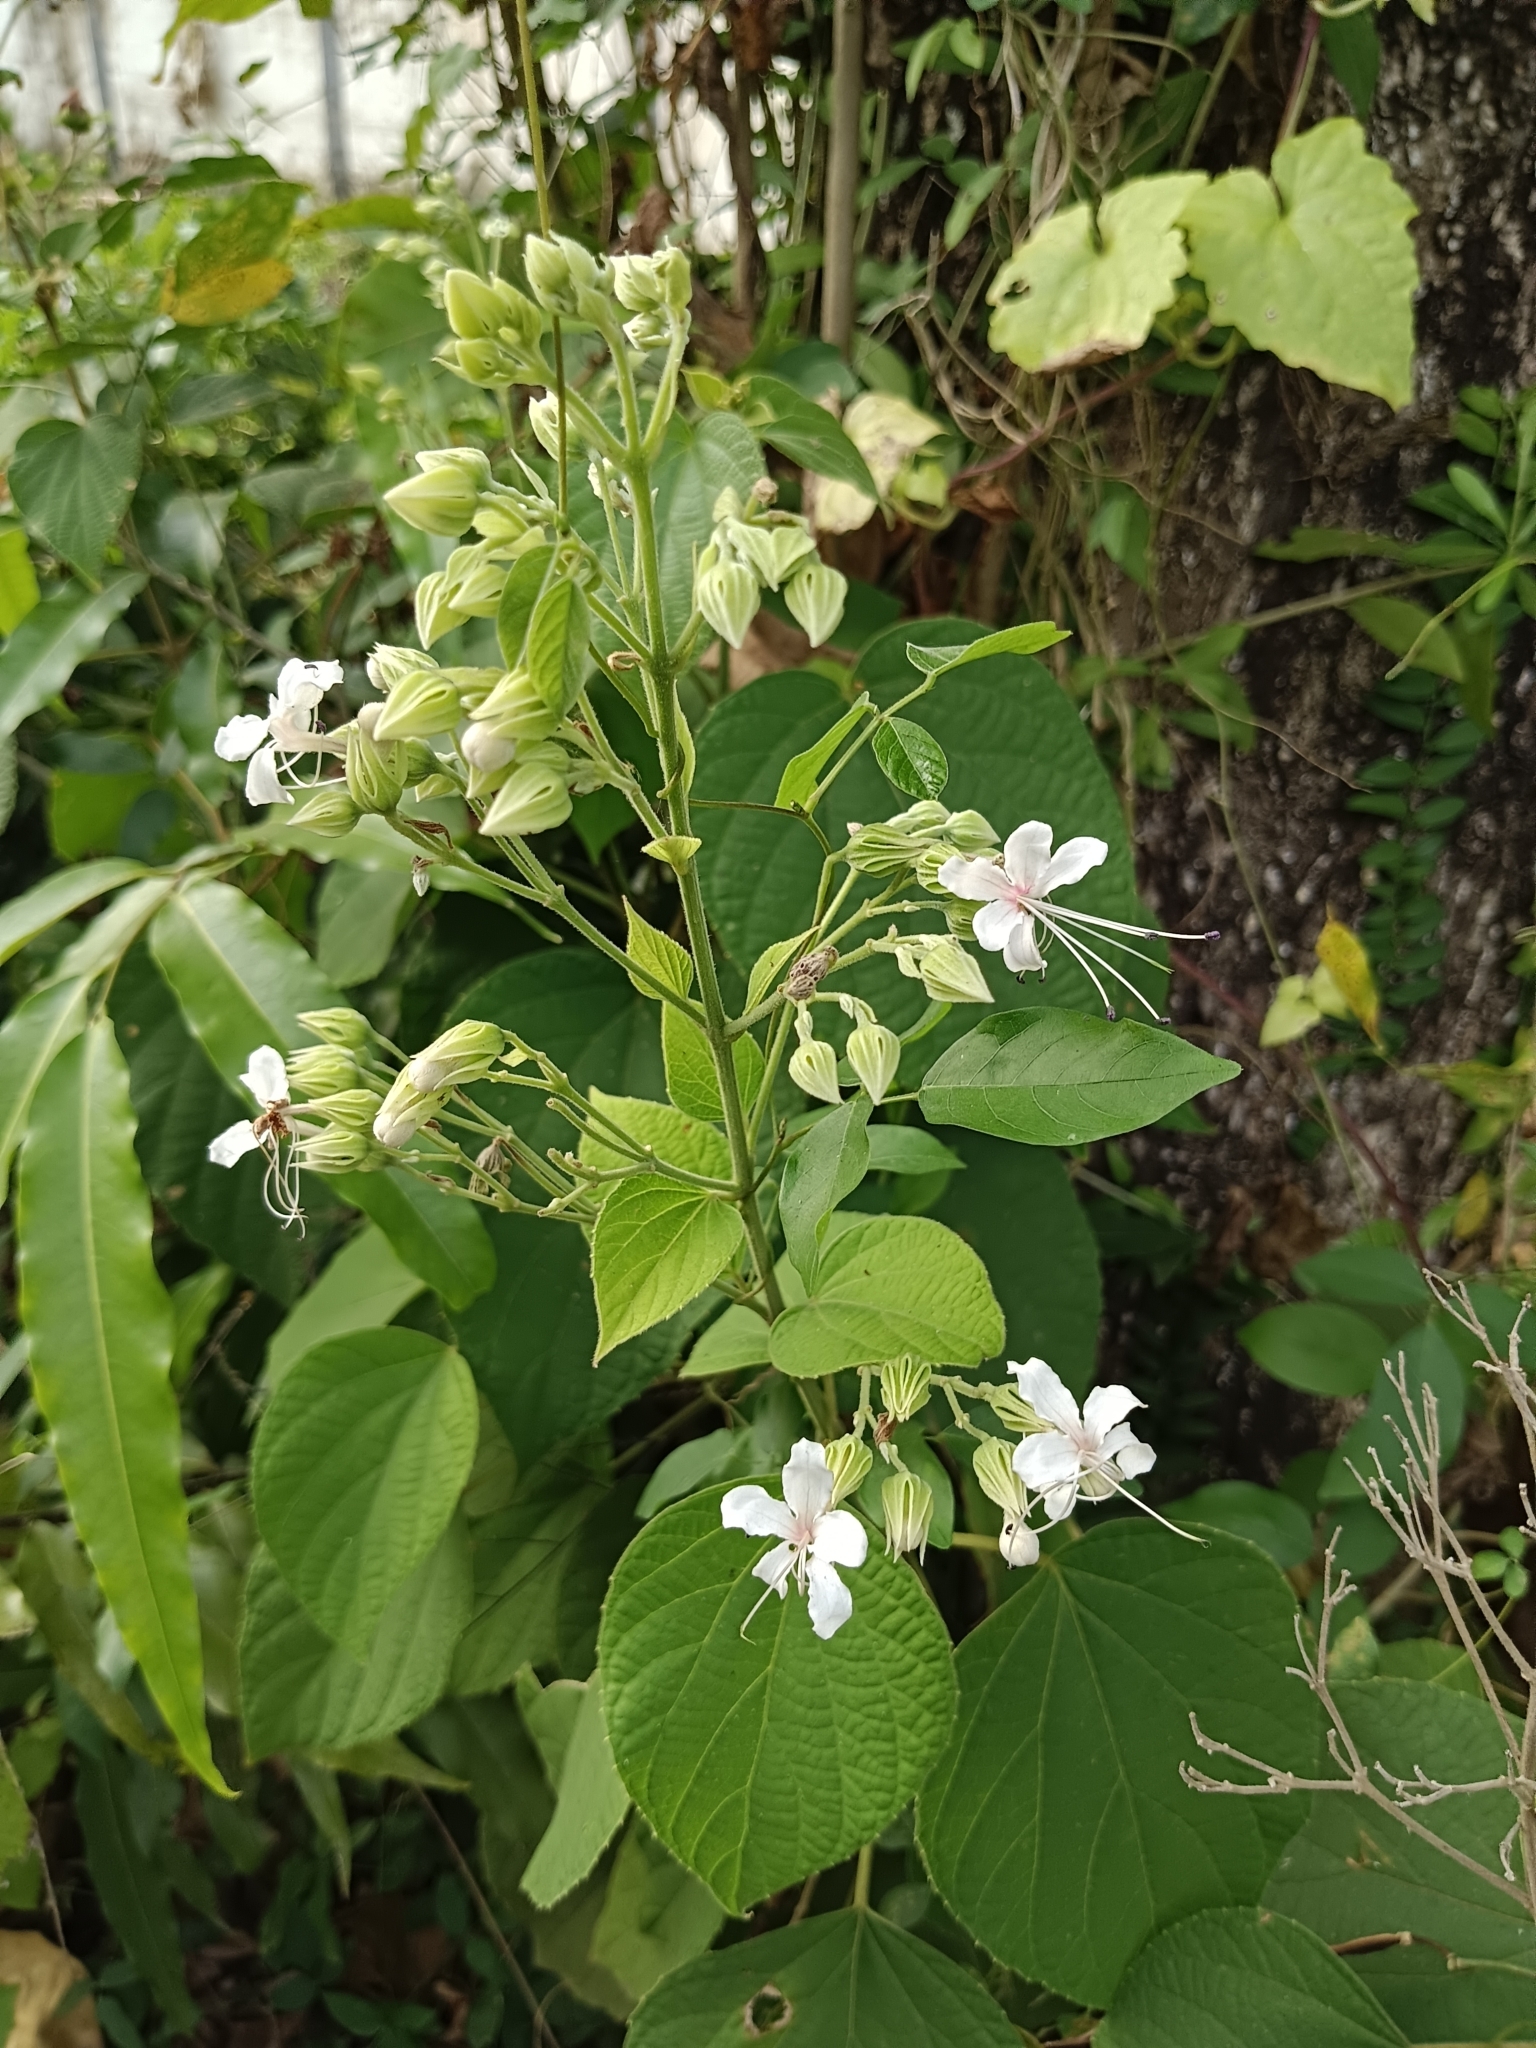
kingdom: Plantae
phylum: Tracheophyta
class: Magnoliopsida
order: Lamiales
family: Lamiaceae
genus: Clerodendrum
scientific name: Clerodendrum infortunatum
